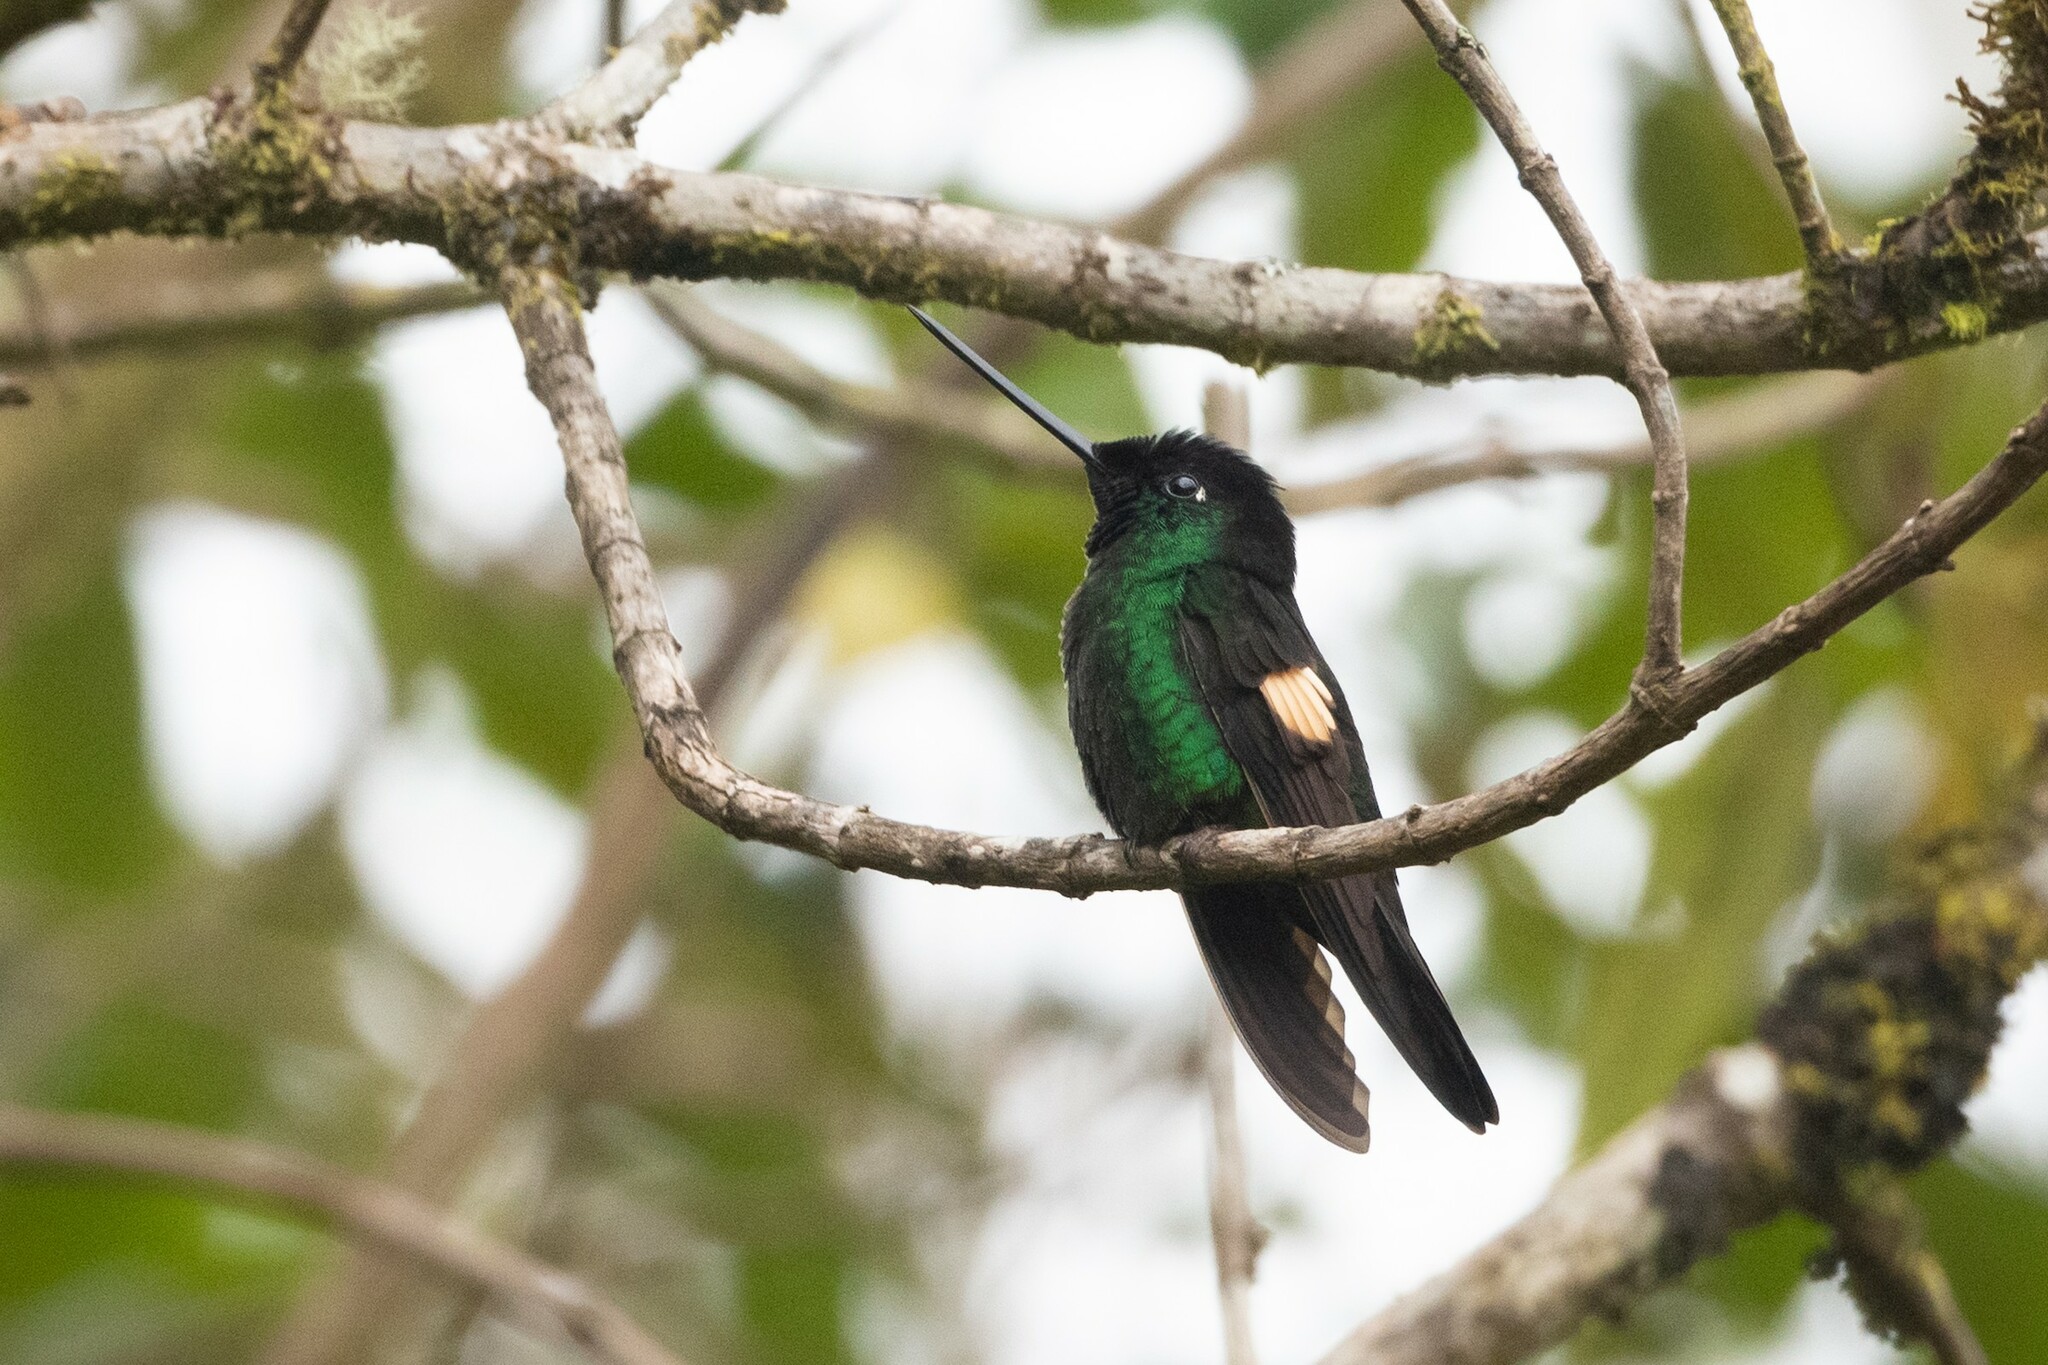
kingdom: Animalia
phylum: Chordata
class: Aves
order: Apodiformes
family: Trochilidae
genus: Coeligena
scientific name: Coeligena lutetiae
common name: Buff-winged starfrontlet
